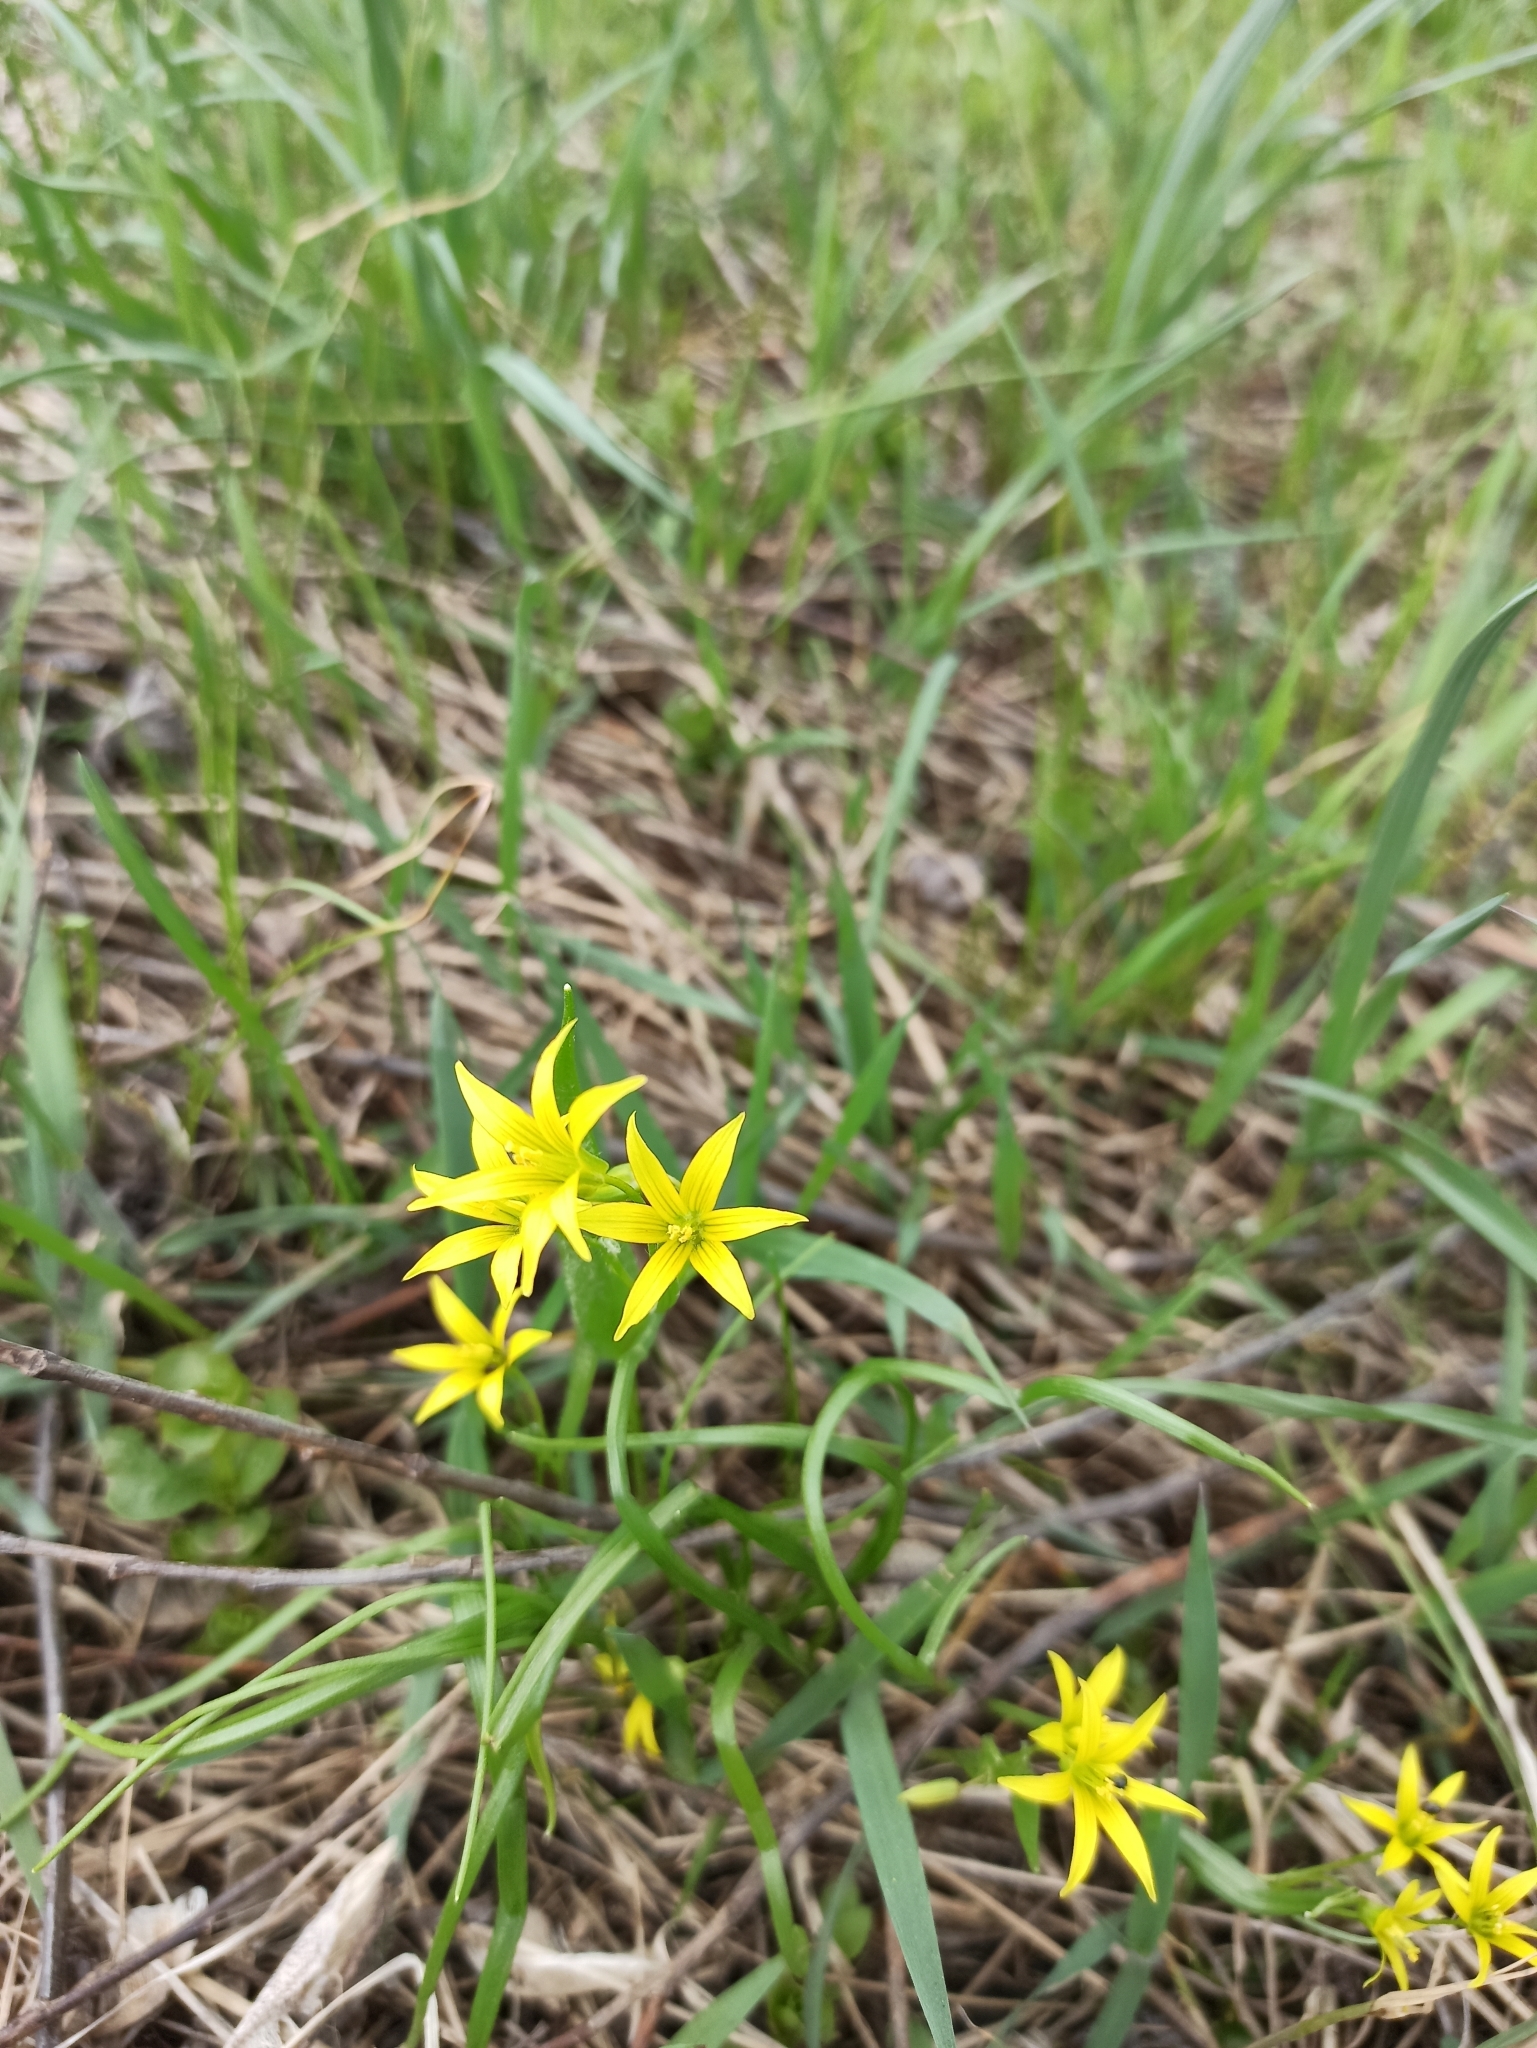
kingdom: Plantae
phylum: Tracheophyta
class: Liliopsida
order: Liliales
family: Liliaceae
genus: Gagea
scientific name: Gagea minima
